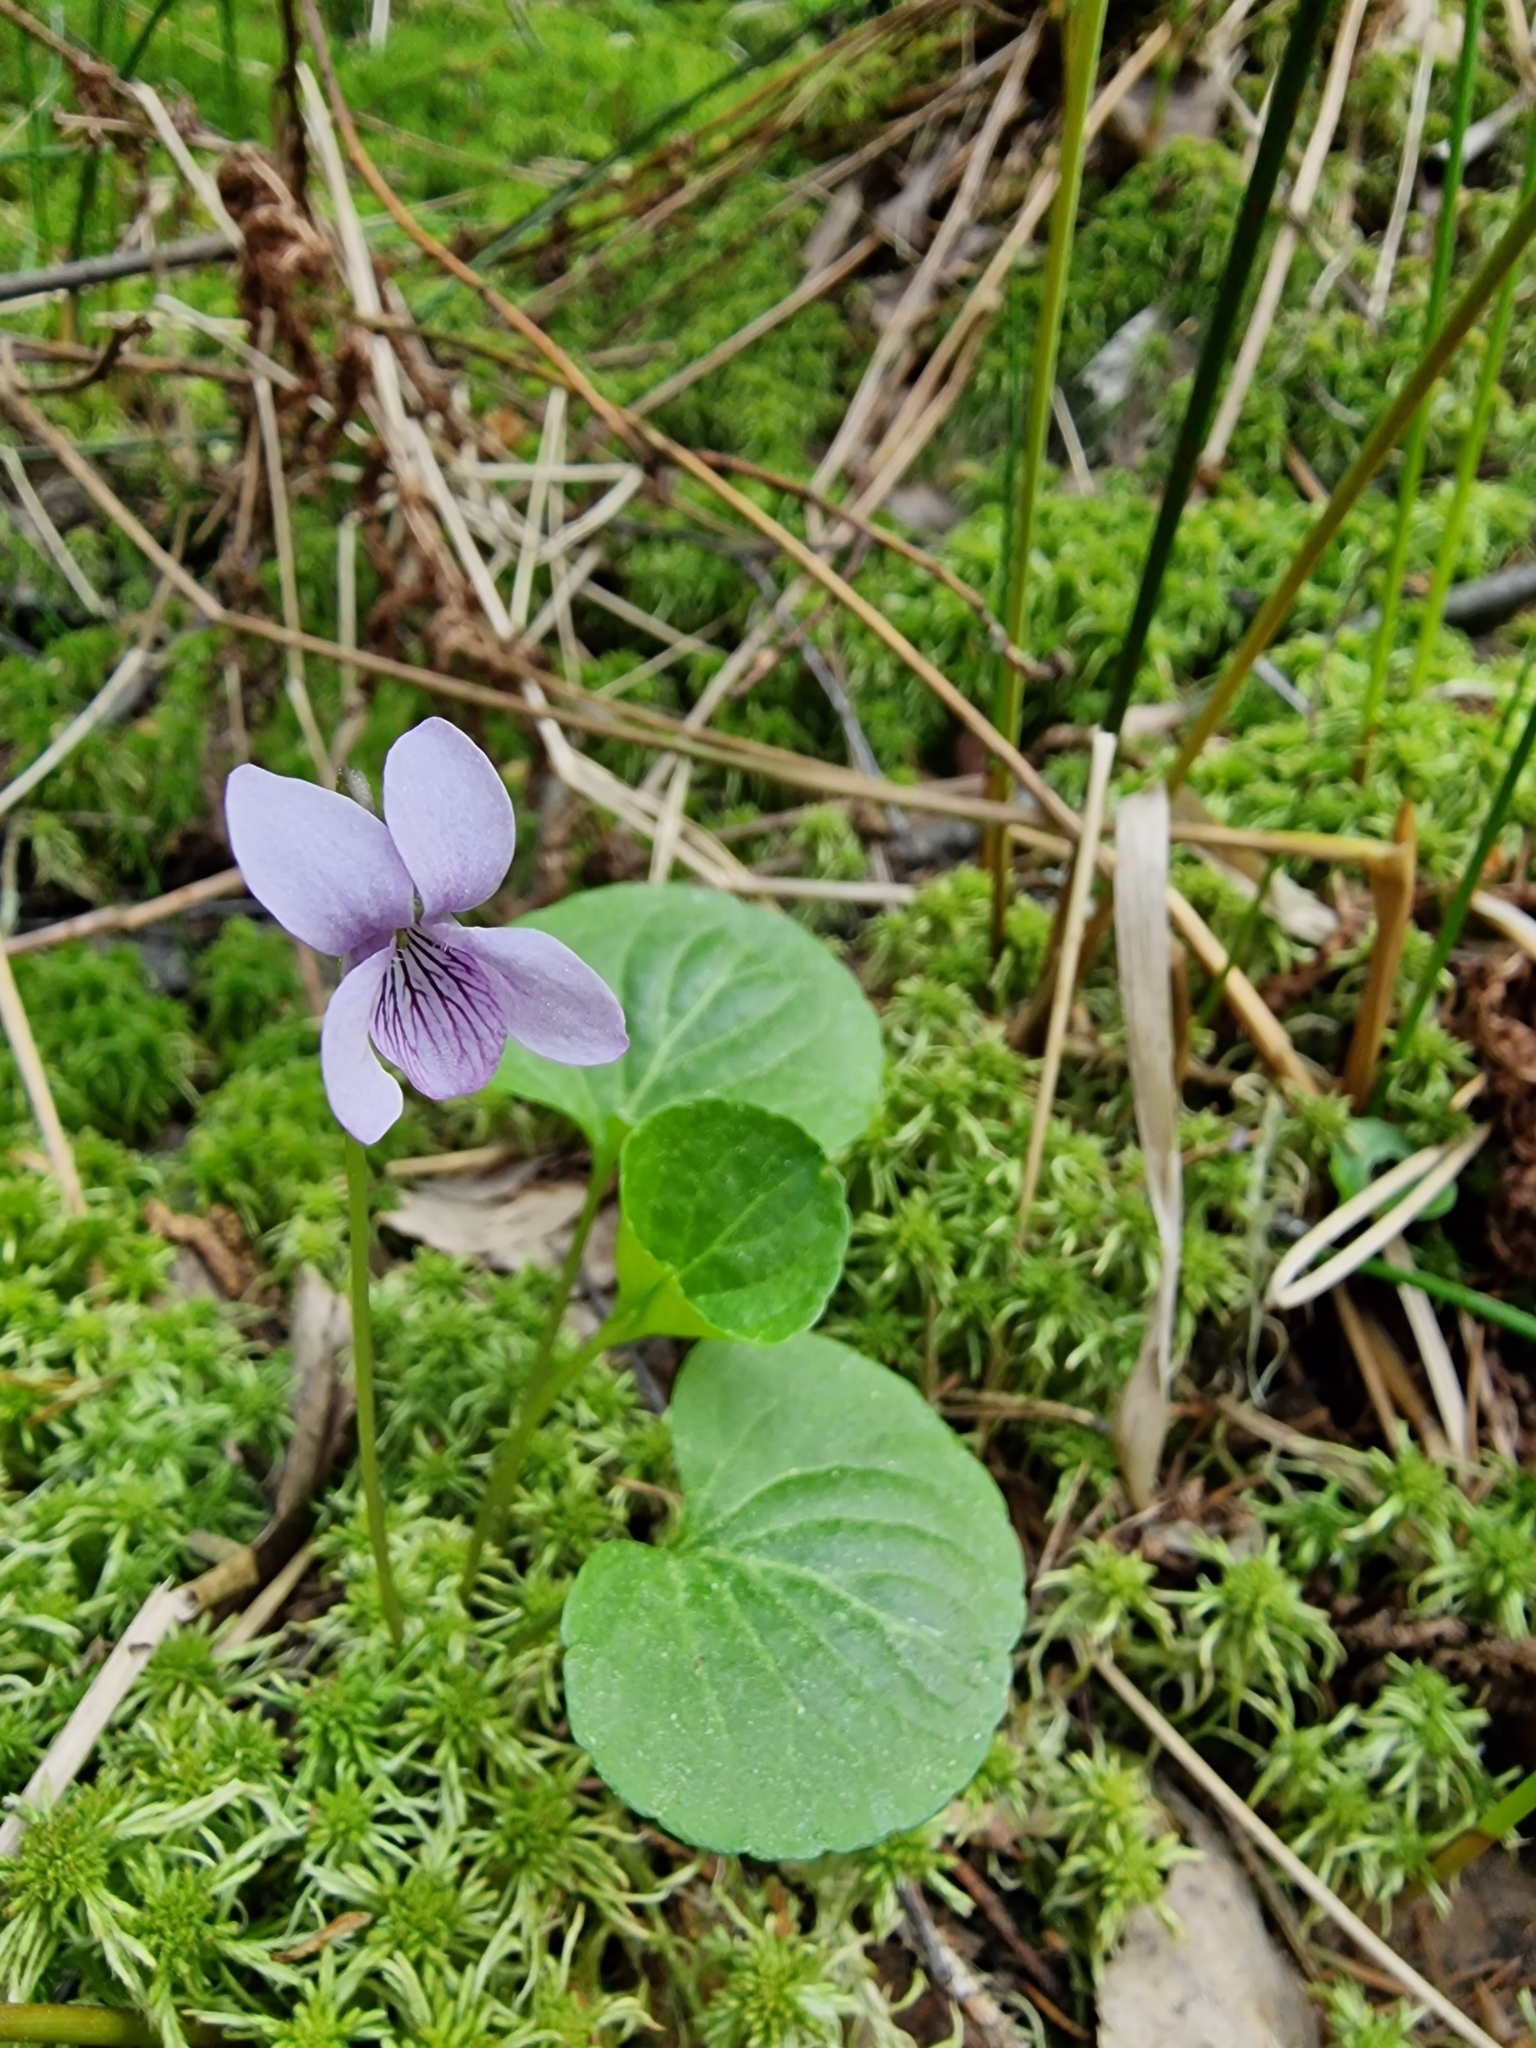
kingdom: Plantae
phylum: Tracheophyta
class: Magnoliopsida
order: Malpighiales
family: Violaceae
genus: Viola
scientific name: Viola palustris
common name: Marsh violet
